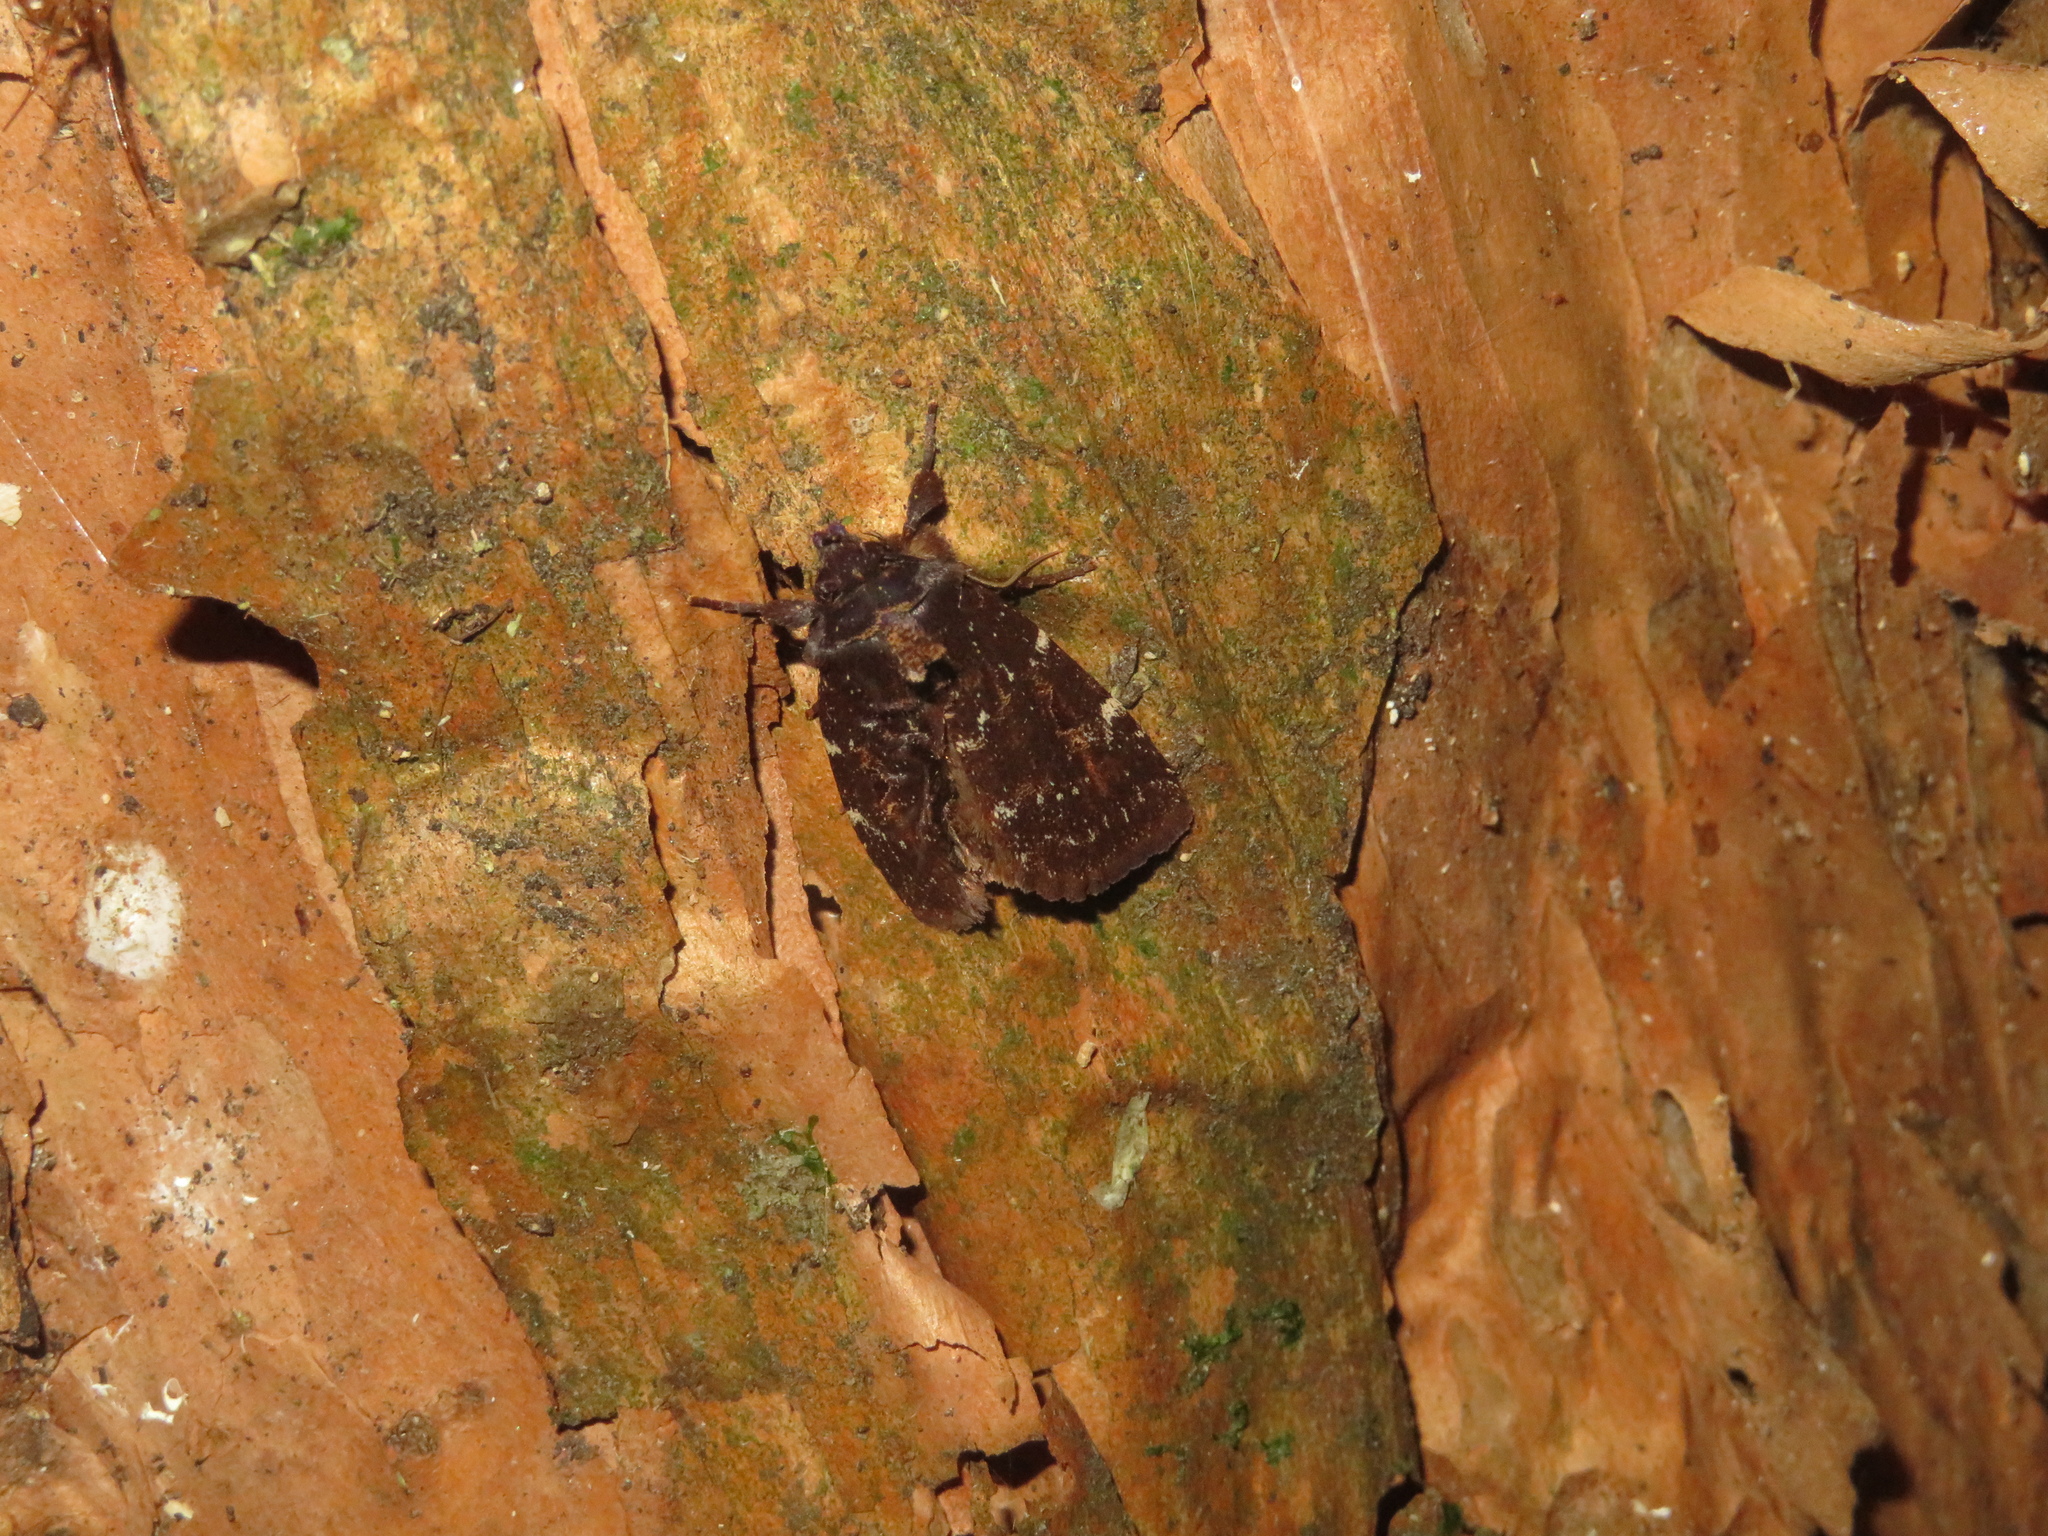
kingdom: Animalia
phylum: Arthropoda
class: Insecta
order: Lepidoptera
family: Noctuidae
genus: Austramathes
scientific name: Austramathes purpurea
